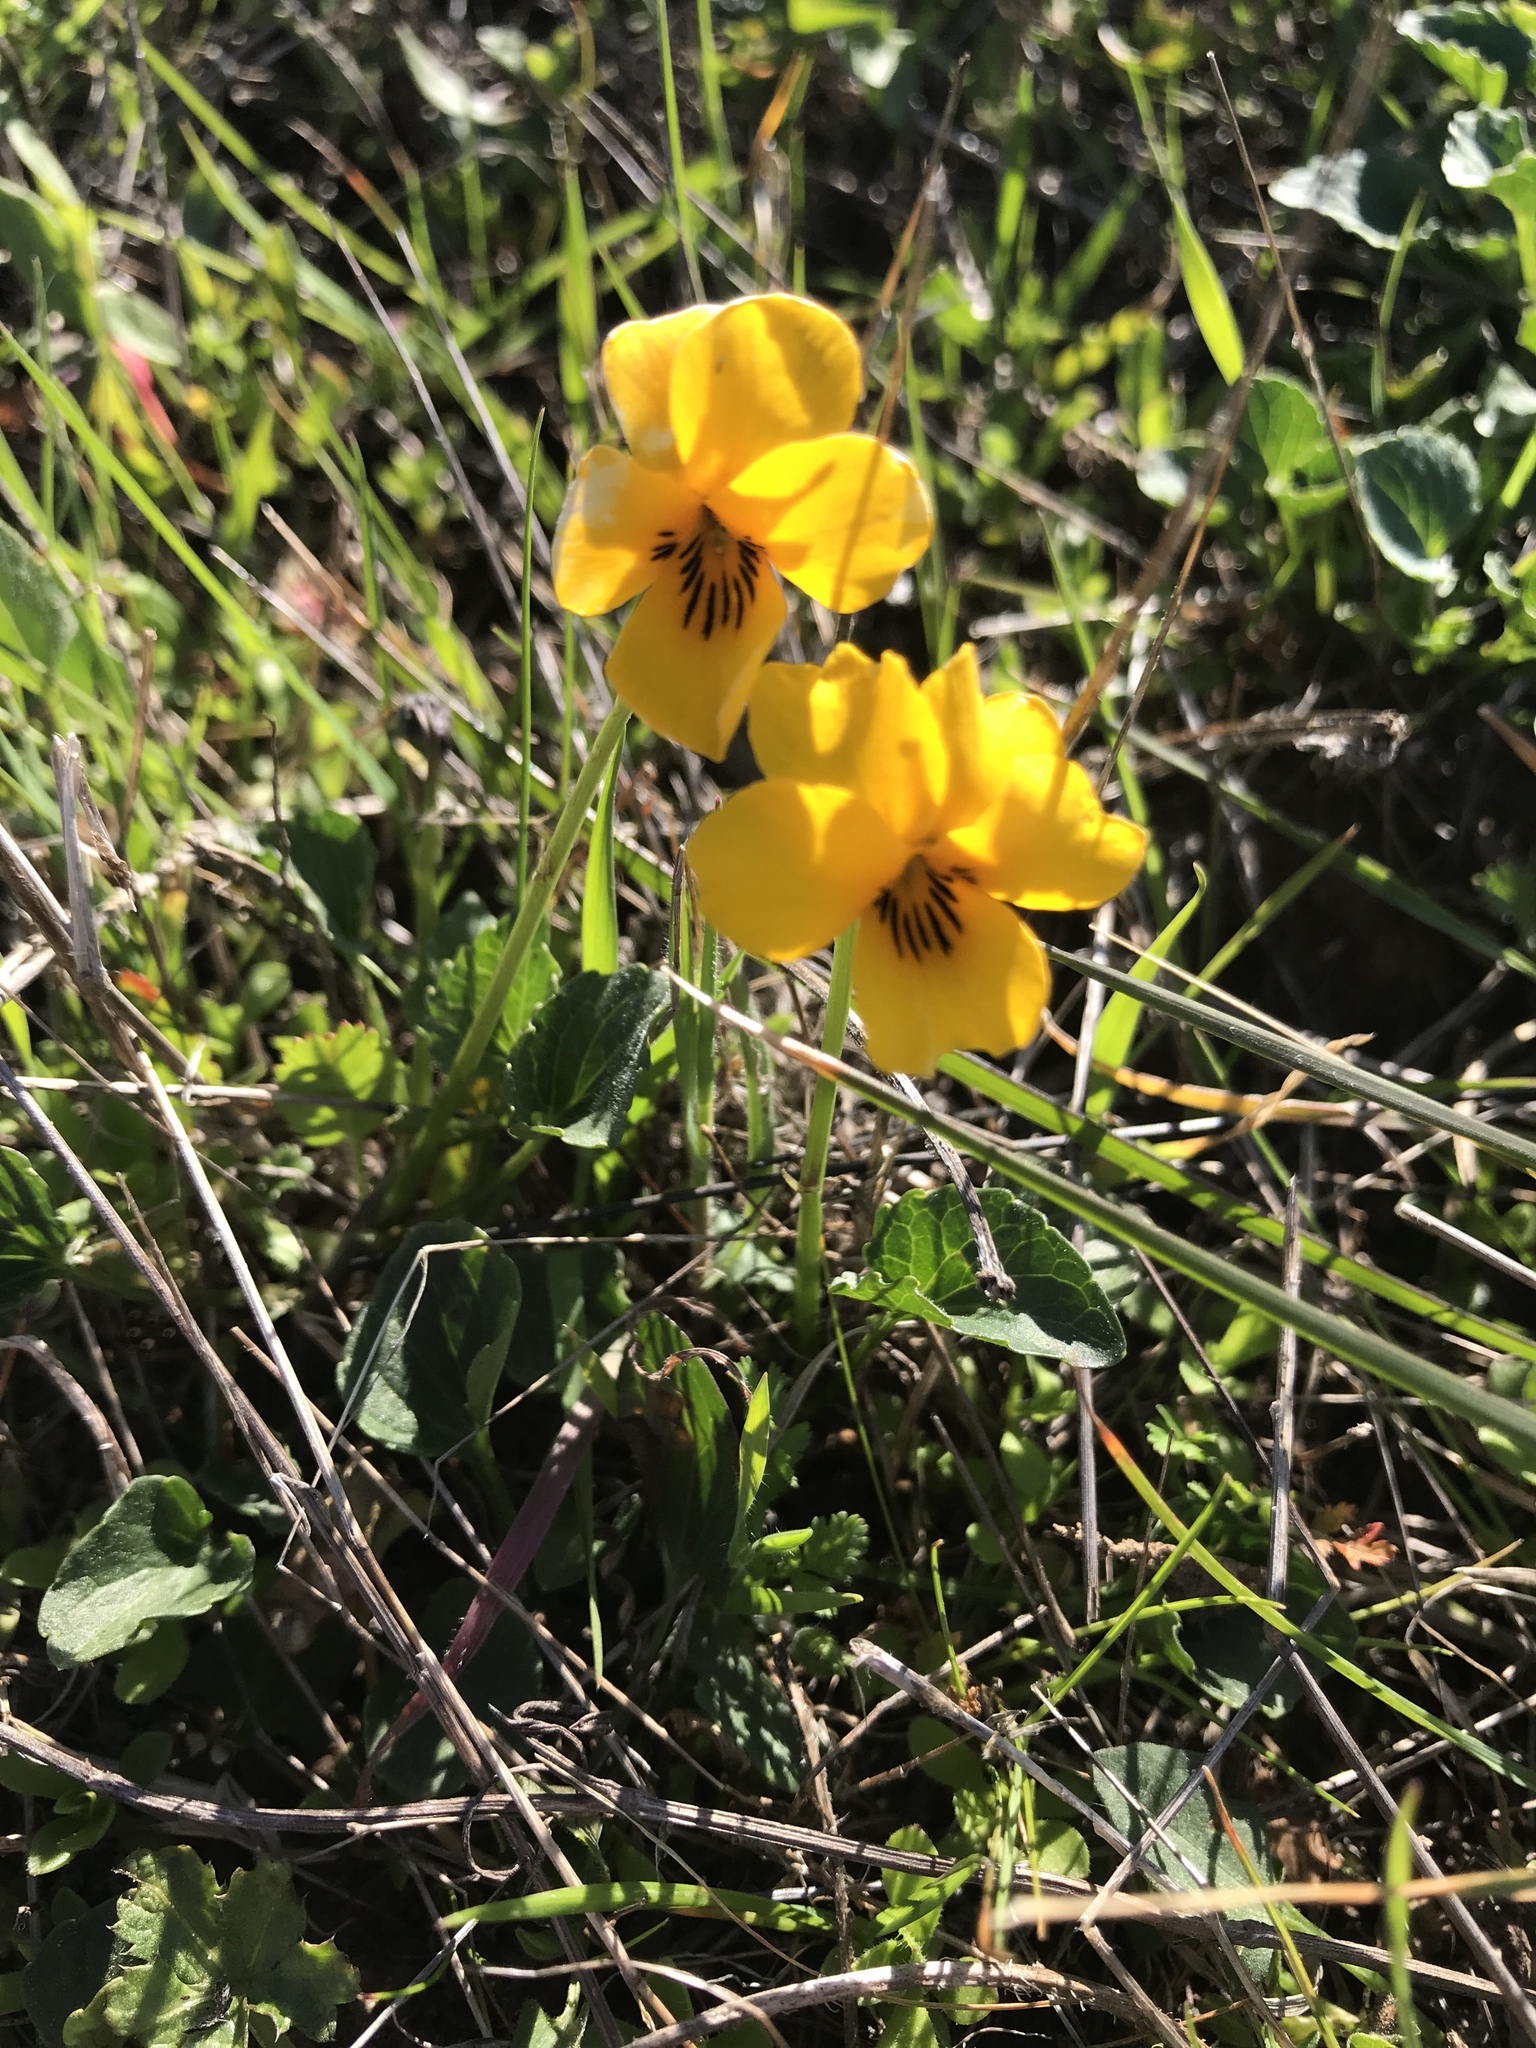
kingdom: Plantae
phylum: Tracheophyta
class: Magnoliopsida
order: Malpighiales
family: Violaceae
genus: Viola
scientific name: Viola pedunculata
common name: California golden violet
